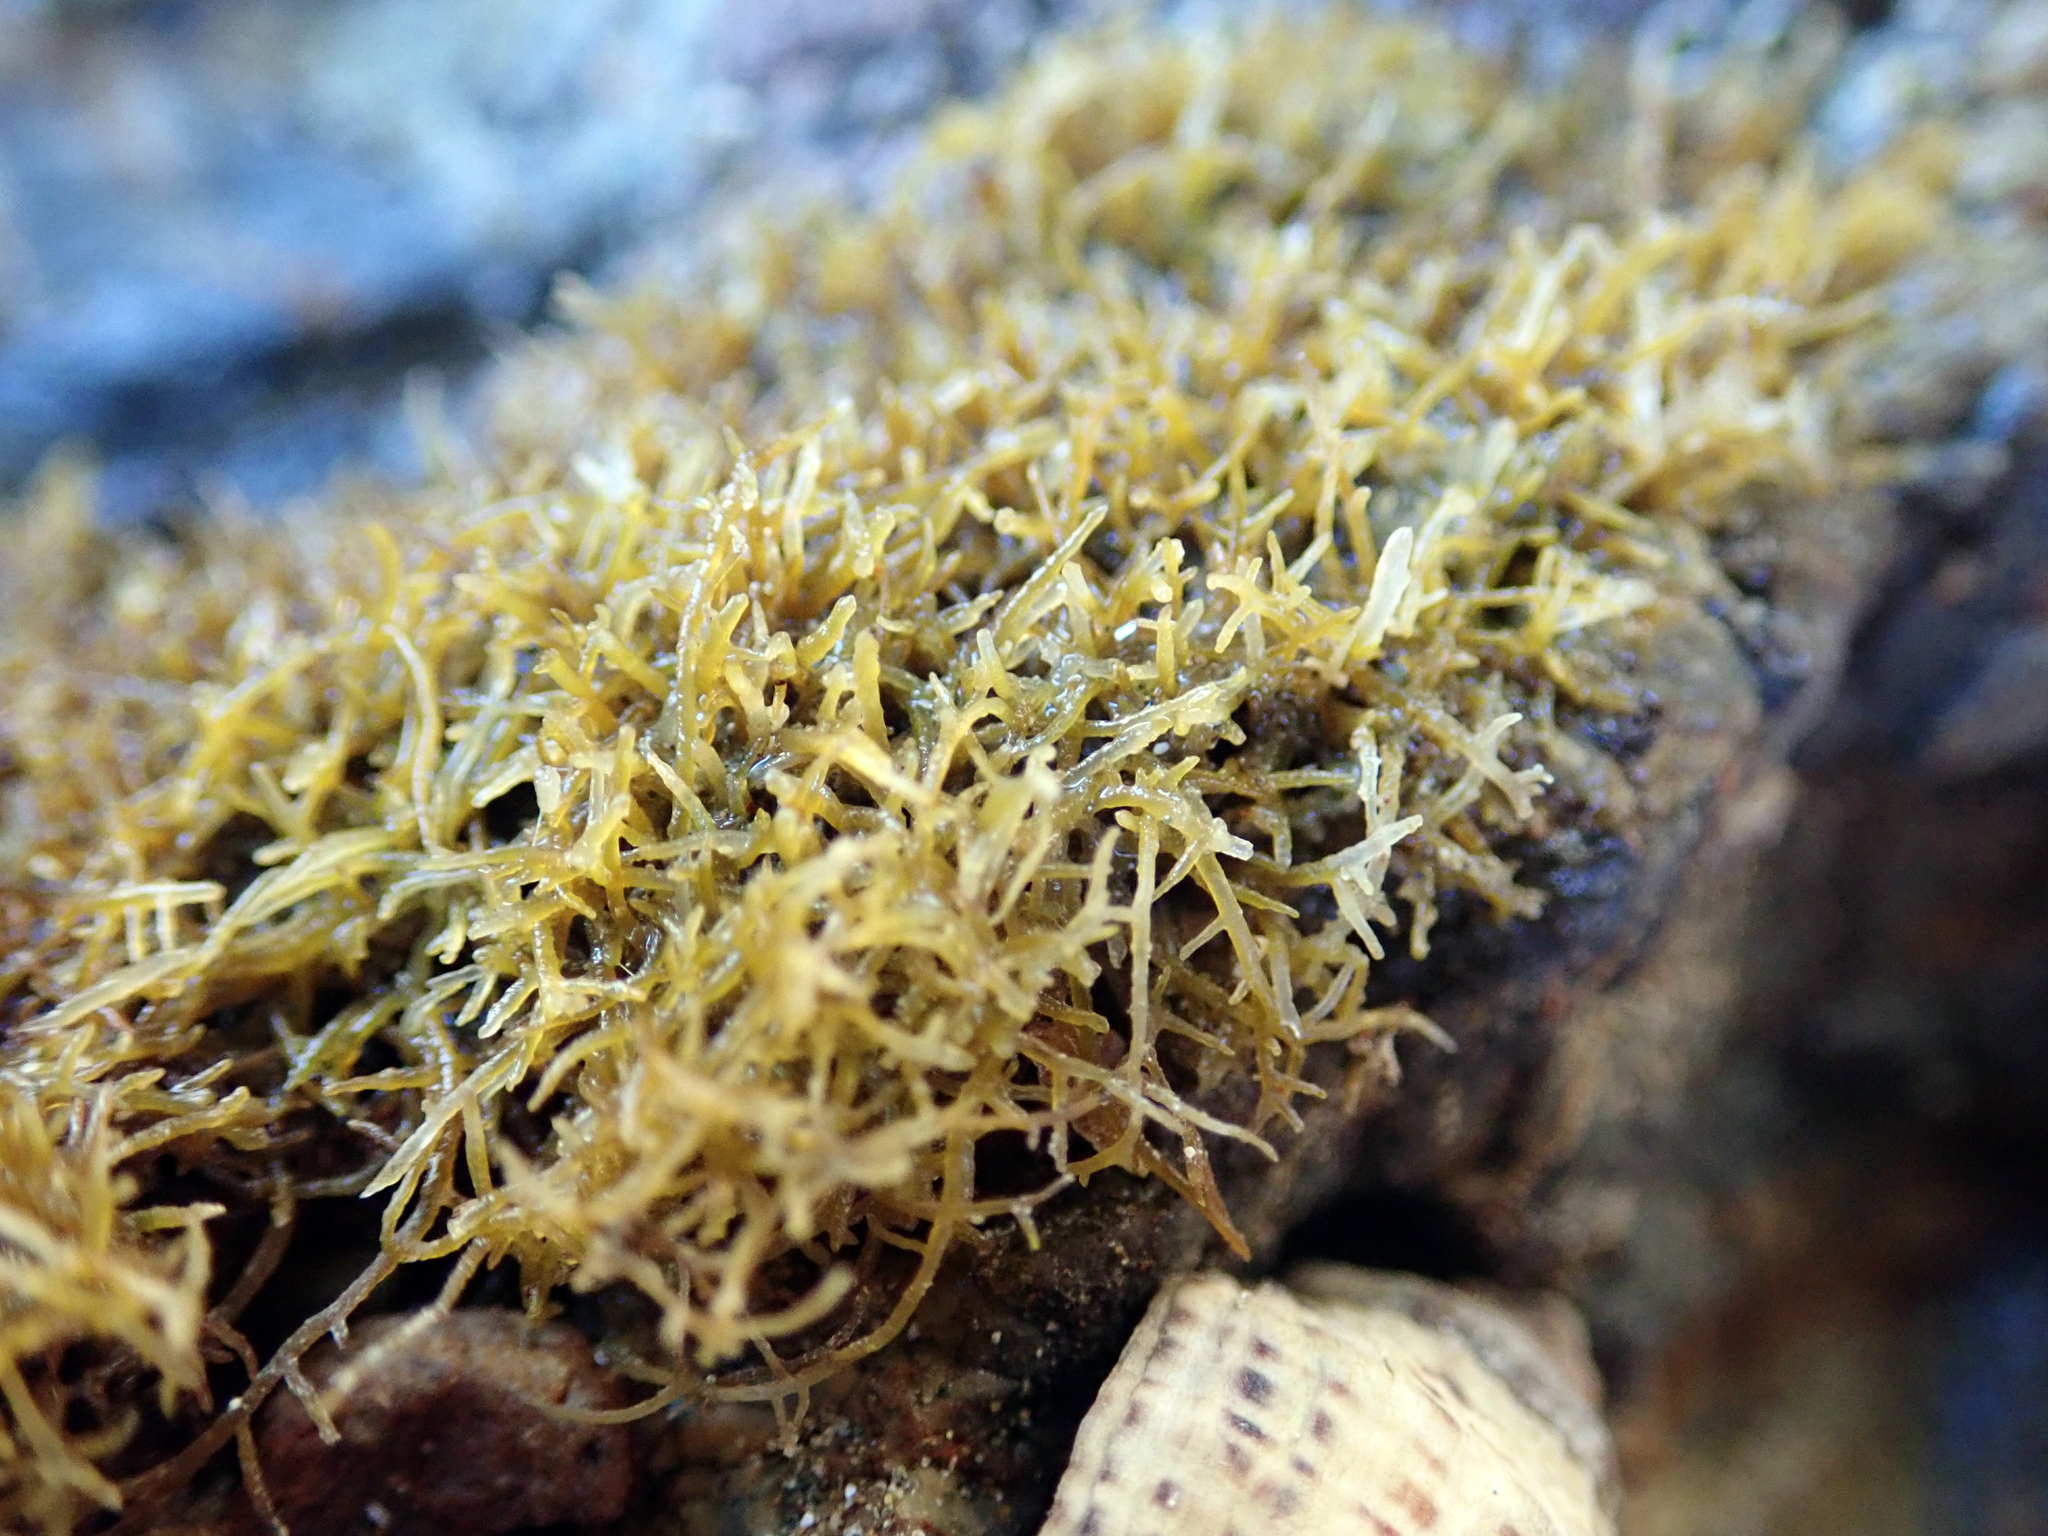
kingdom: Plantae
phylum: Rhodophyta
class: Florideophyceae
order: Gelidiales
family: Gelidiaceae
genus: Capreolia
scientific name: Capreolia implexa
